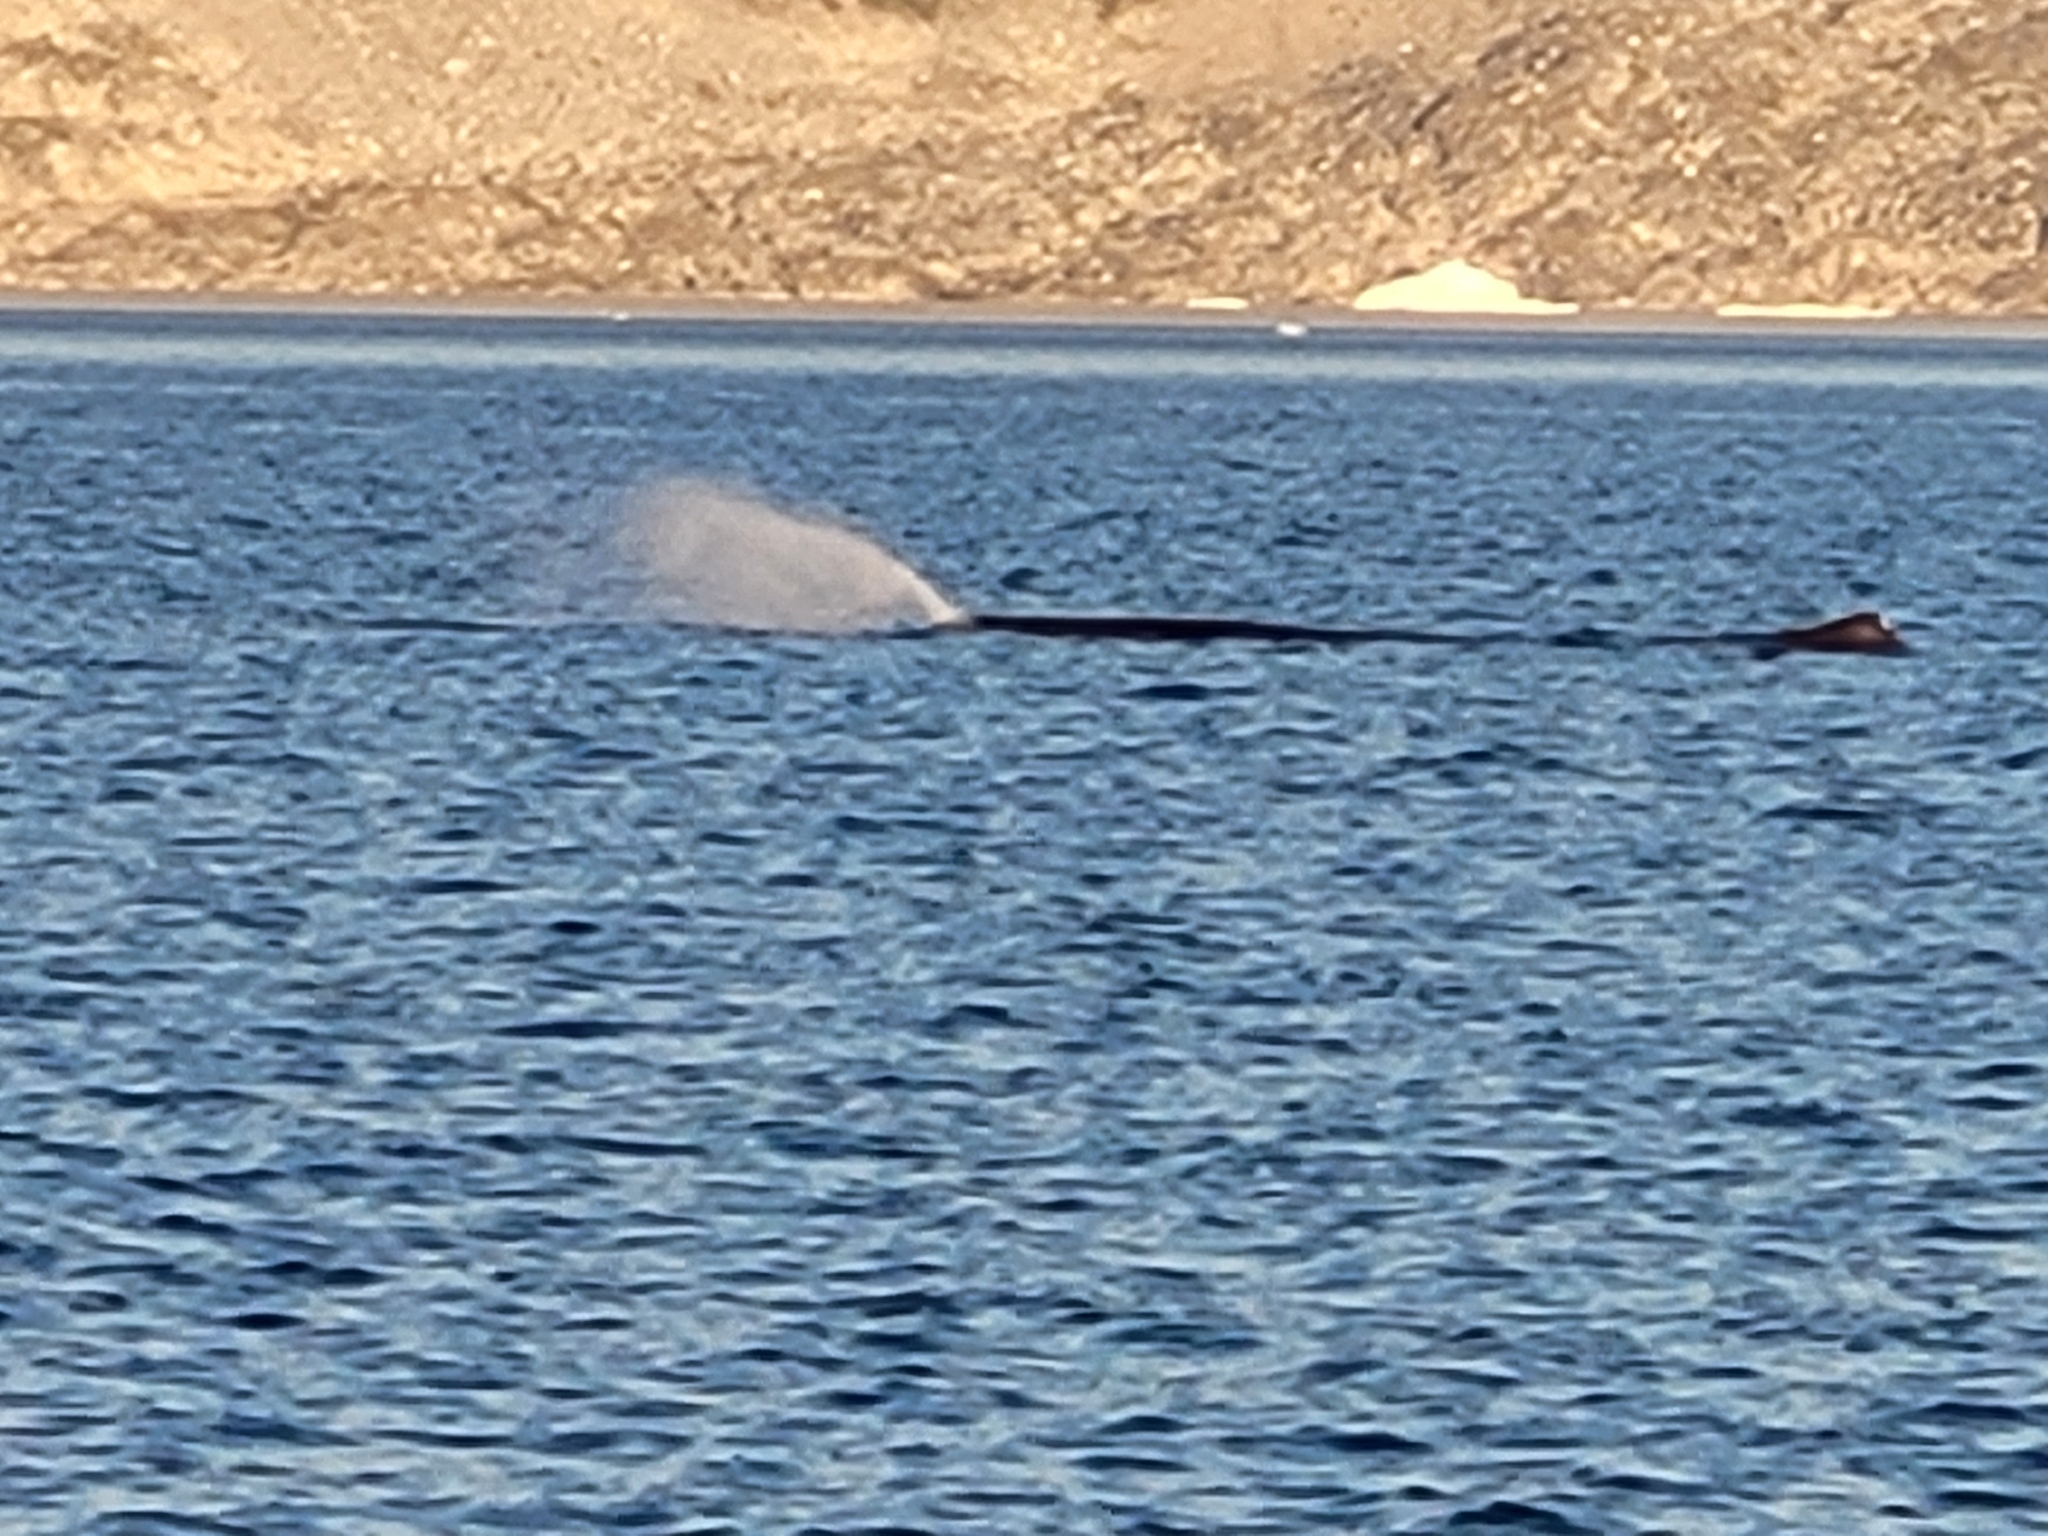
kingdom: Animalia
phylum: Chordata
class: Mammalia
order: Cetacea
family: Physeteridae
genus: Physeter
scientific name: Physeter macrocephalus
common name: Sperm whale
